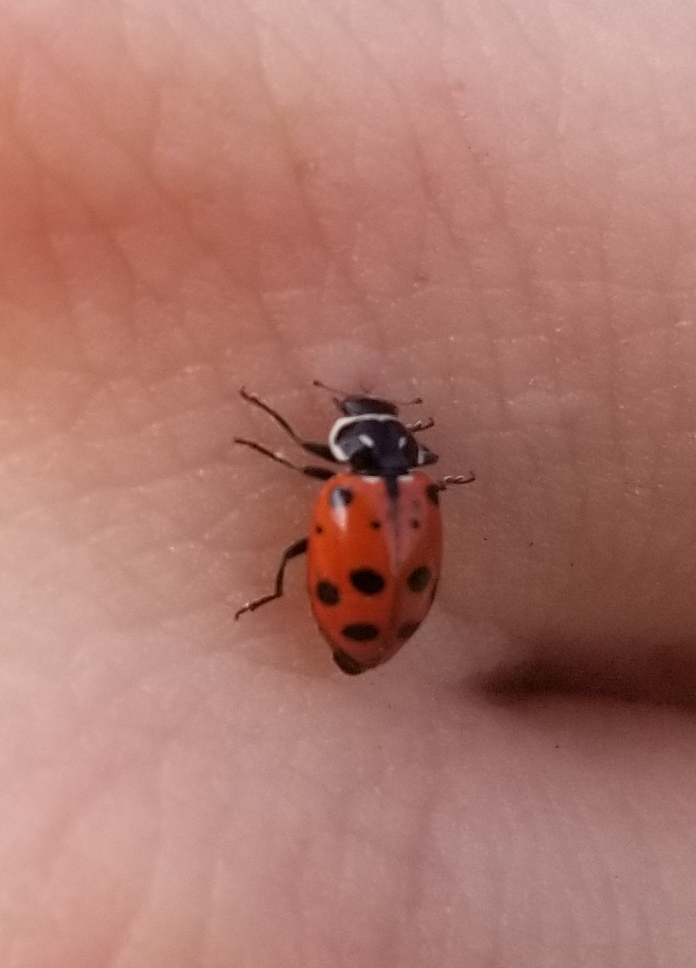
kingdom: Animalia
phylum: Arthropoda
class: Insecta
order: Coleoptera
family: Coccinellidae
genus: Hippodamia
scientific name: Hippodamia convergens
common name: Convergent lady beetle
